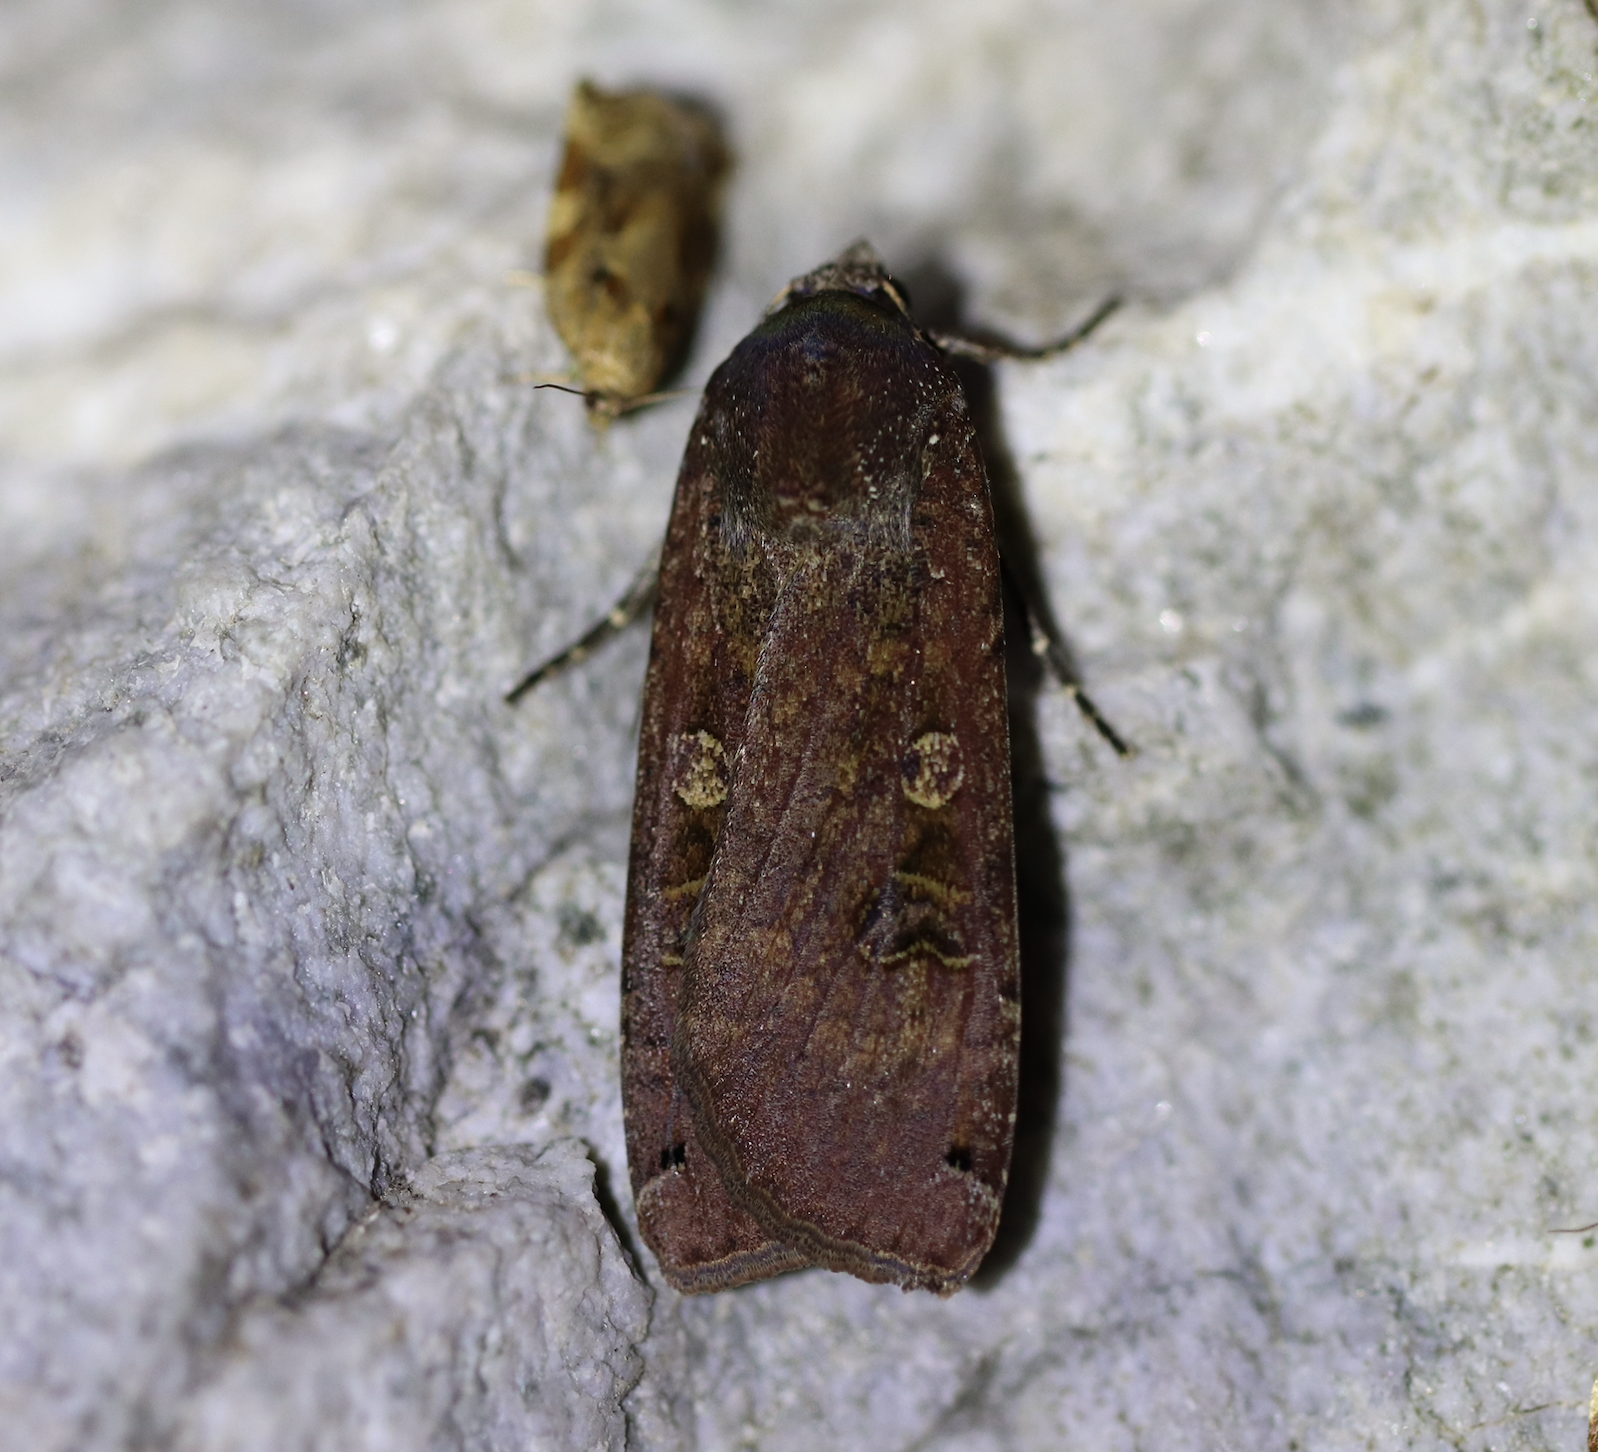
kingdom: Animalia
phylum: Arthropoda
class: Insecta
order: Lepidoptera
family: Noctuidae
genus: Noctua
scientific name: Noctua pronuba
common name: Large yellow underwing
